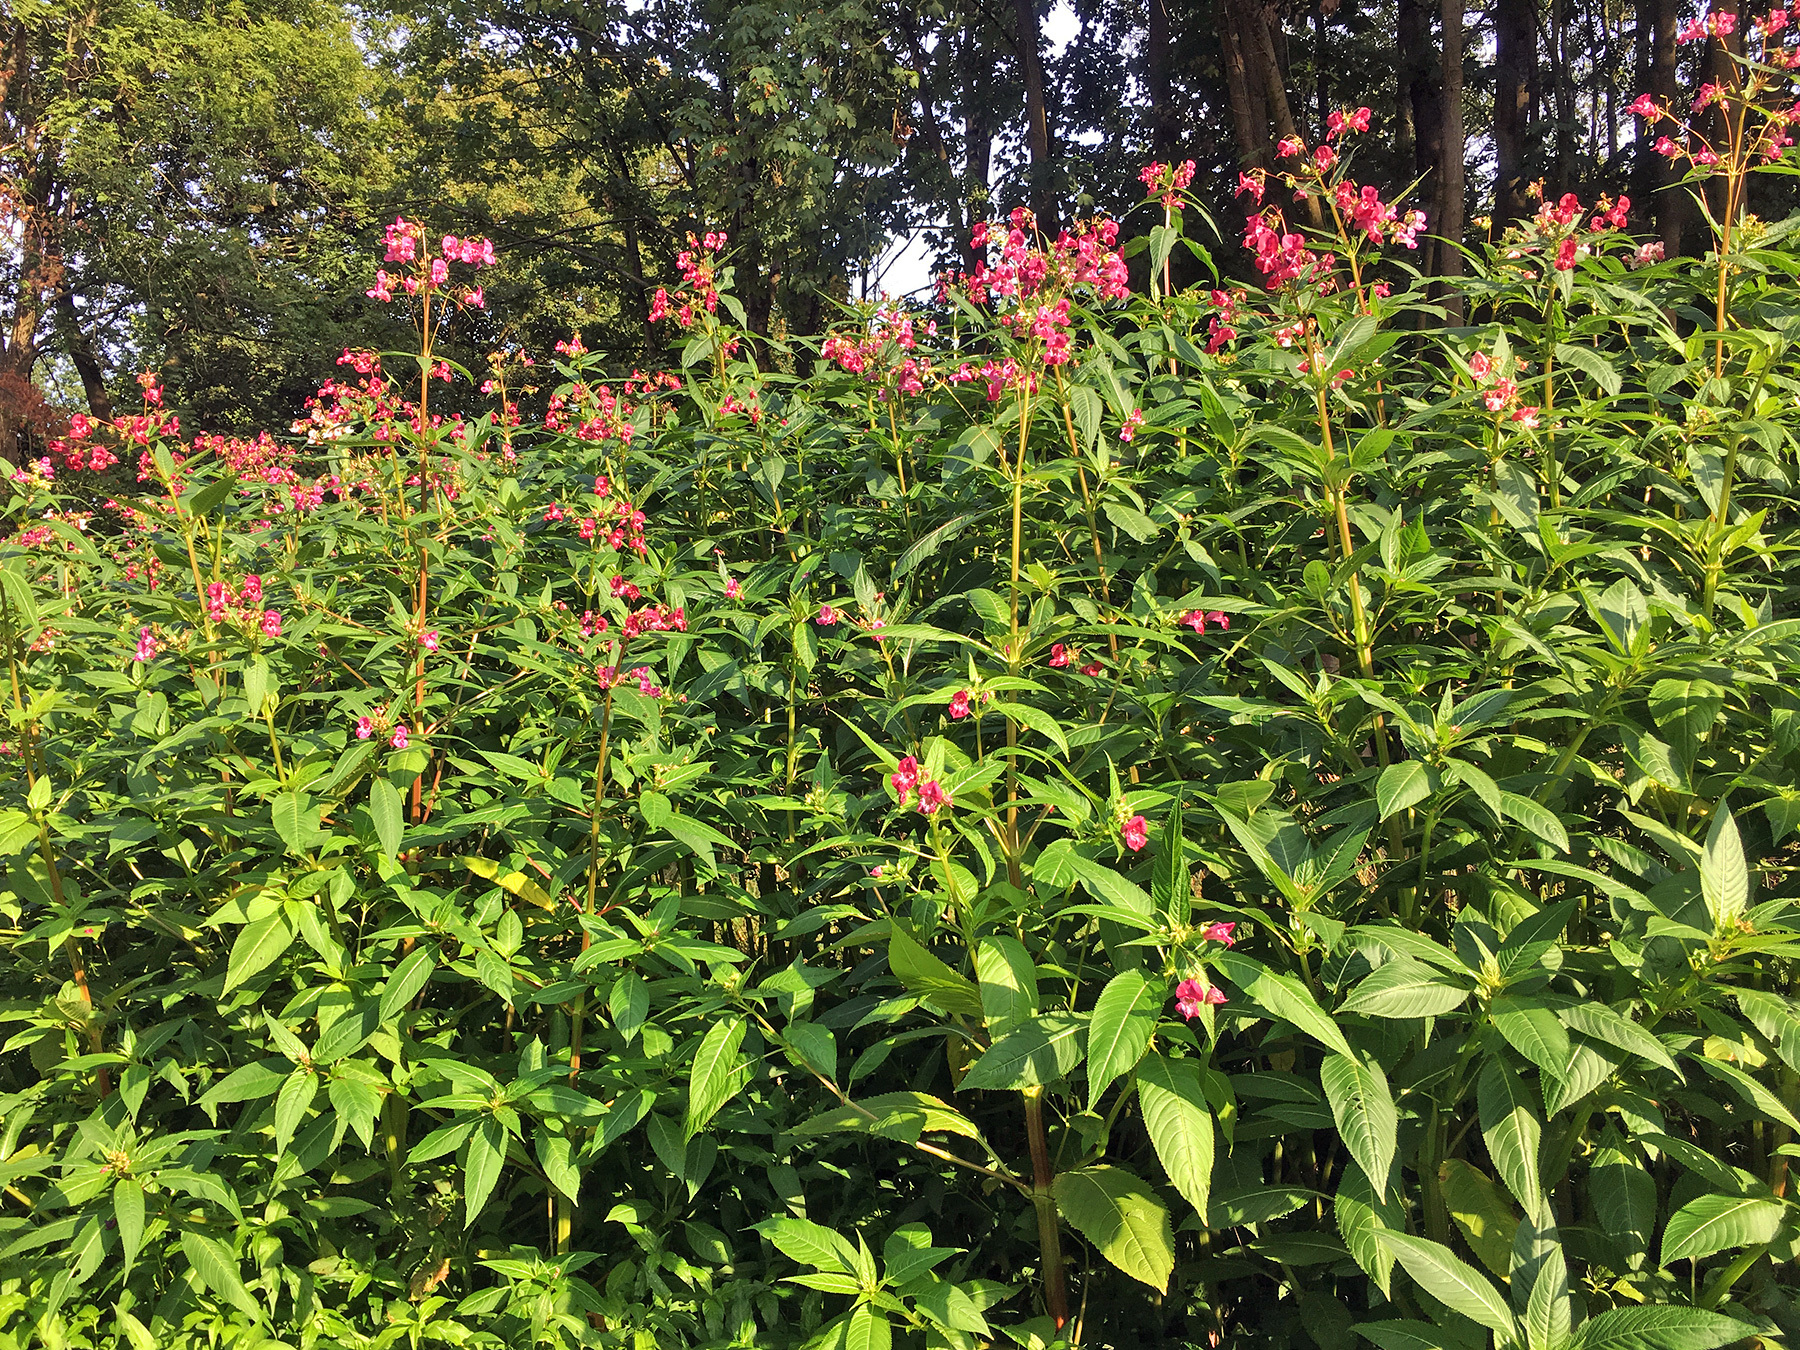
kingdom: Plantae
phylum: Tracheophyta
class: Magnoliopsida
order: Ericales
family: Balsaminaceae
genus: Impatiens
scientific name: Impatiens glandulifera
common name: Himalayan balsam
